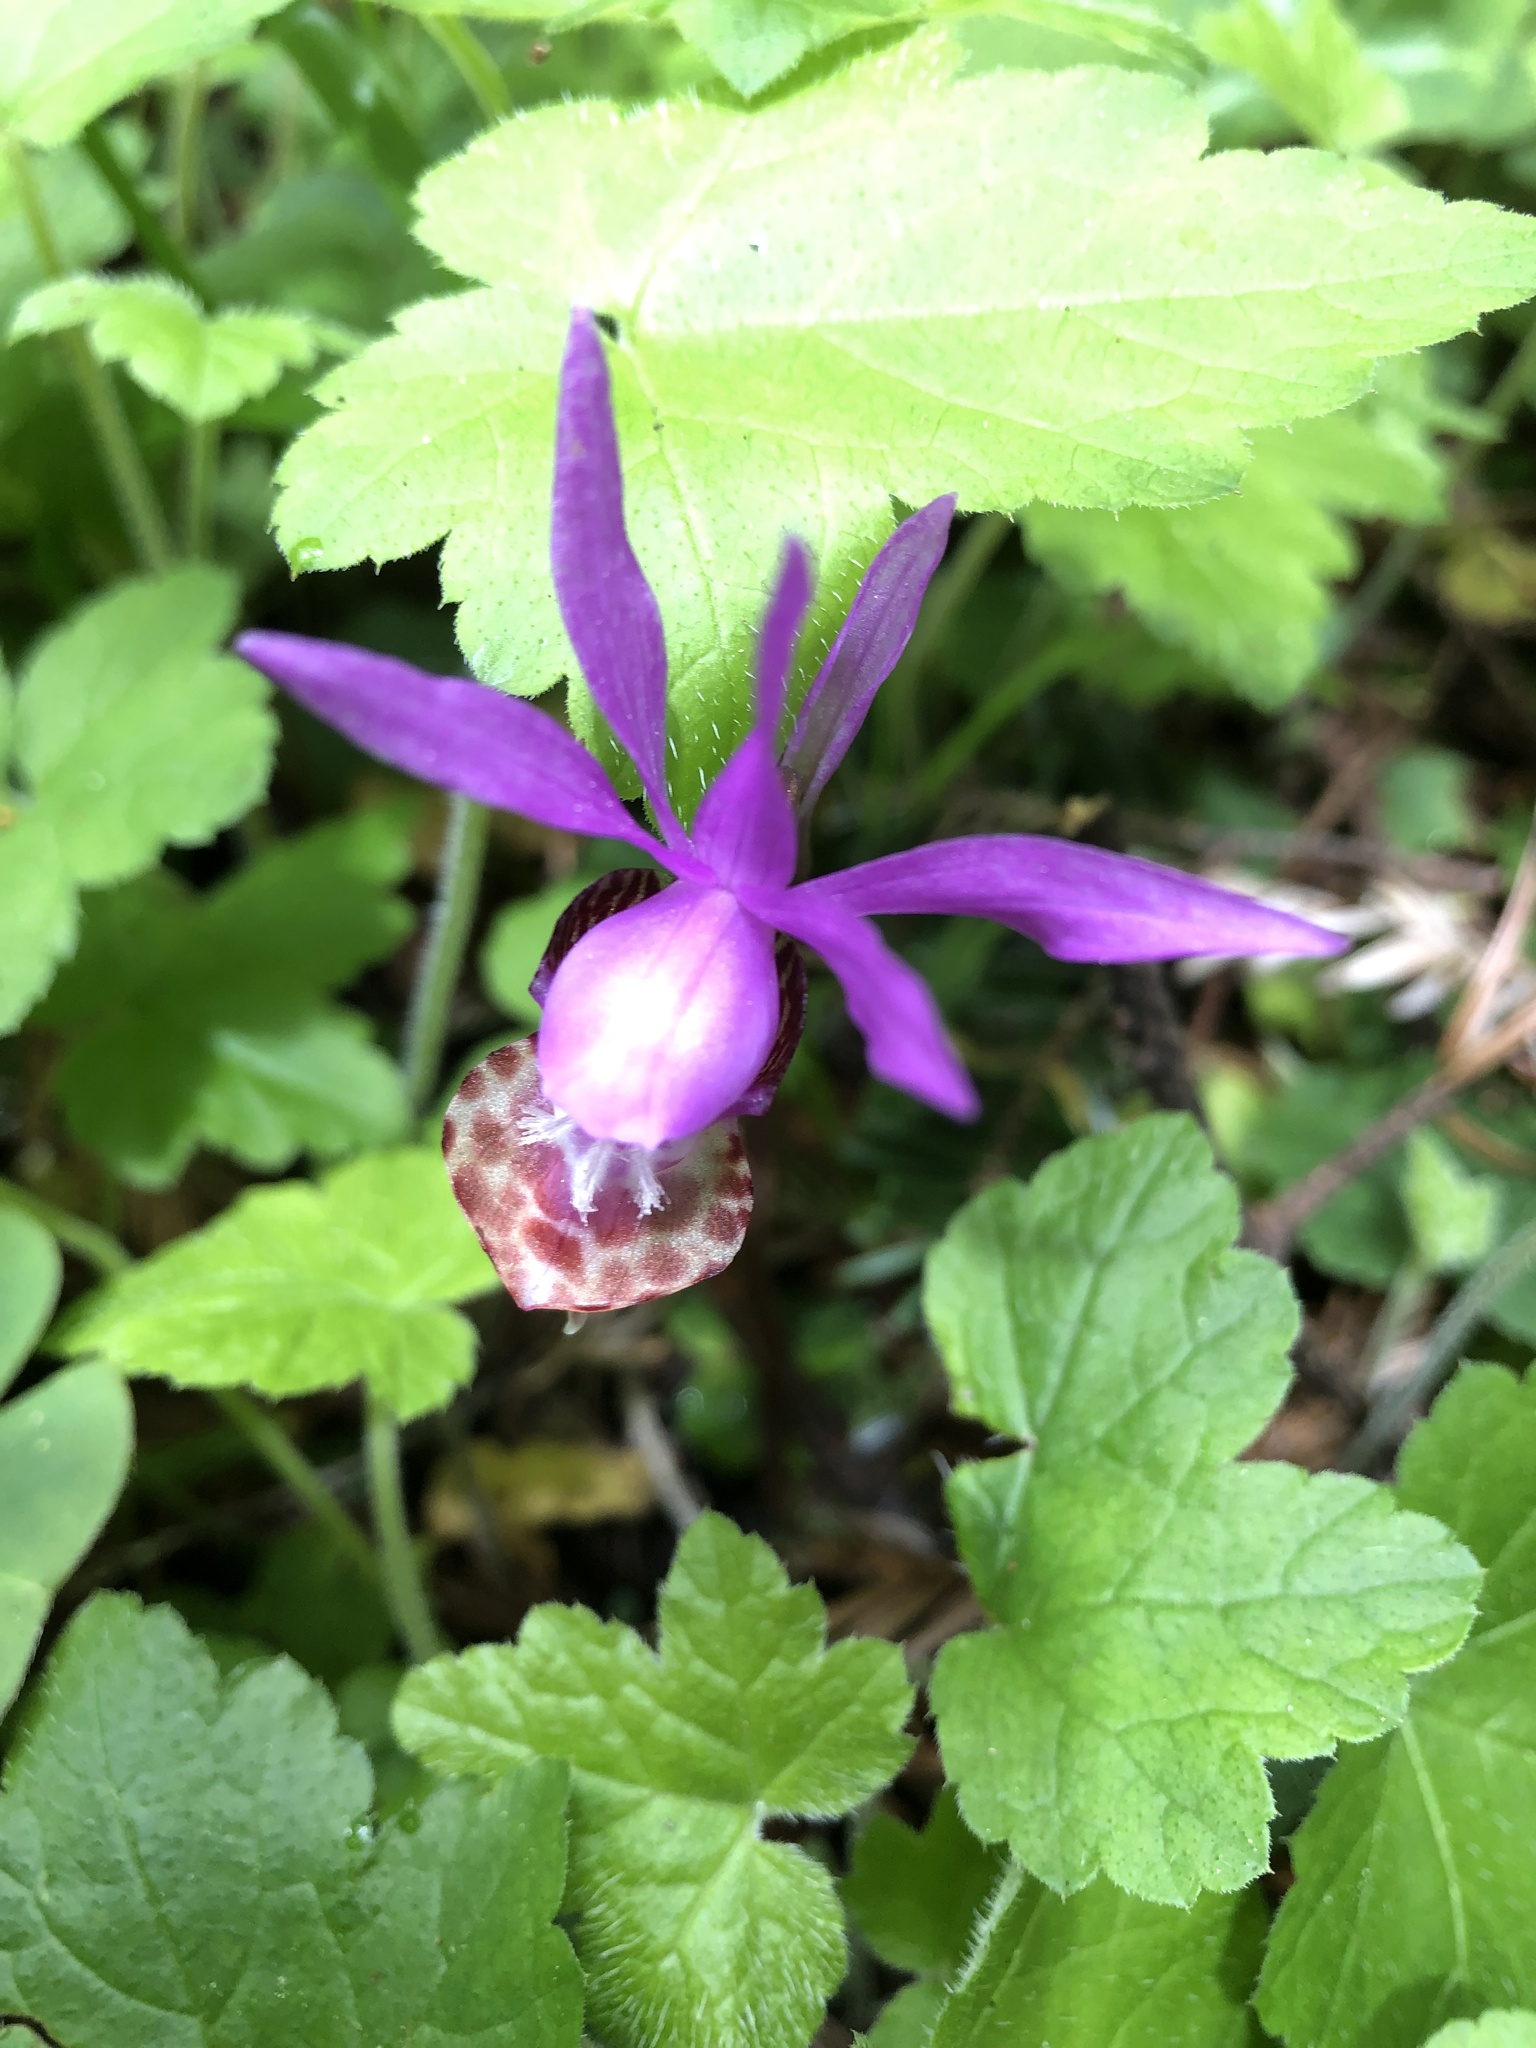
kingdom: Plantae
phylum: Tracheophyta
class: Liliopsida
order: Asparagales
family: Orchidaceae
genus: Calypso
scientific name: Calypso bulbosa
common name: Calypso
